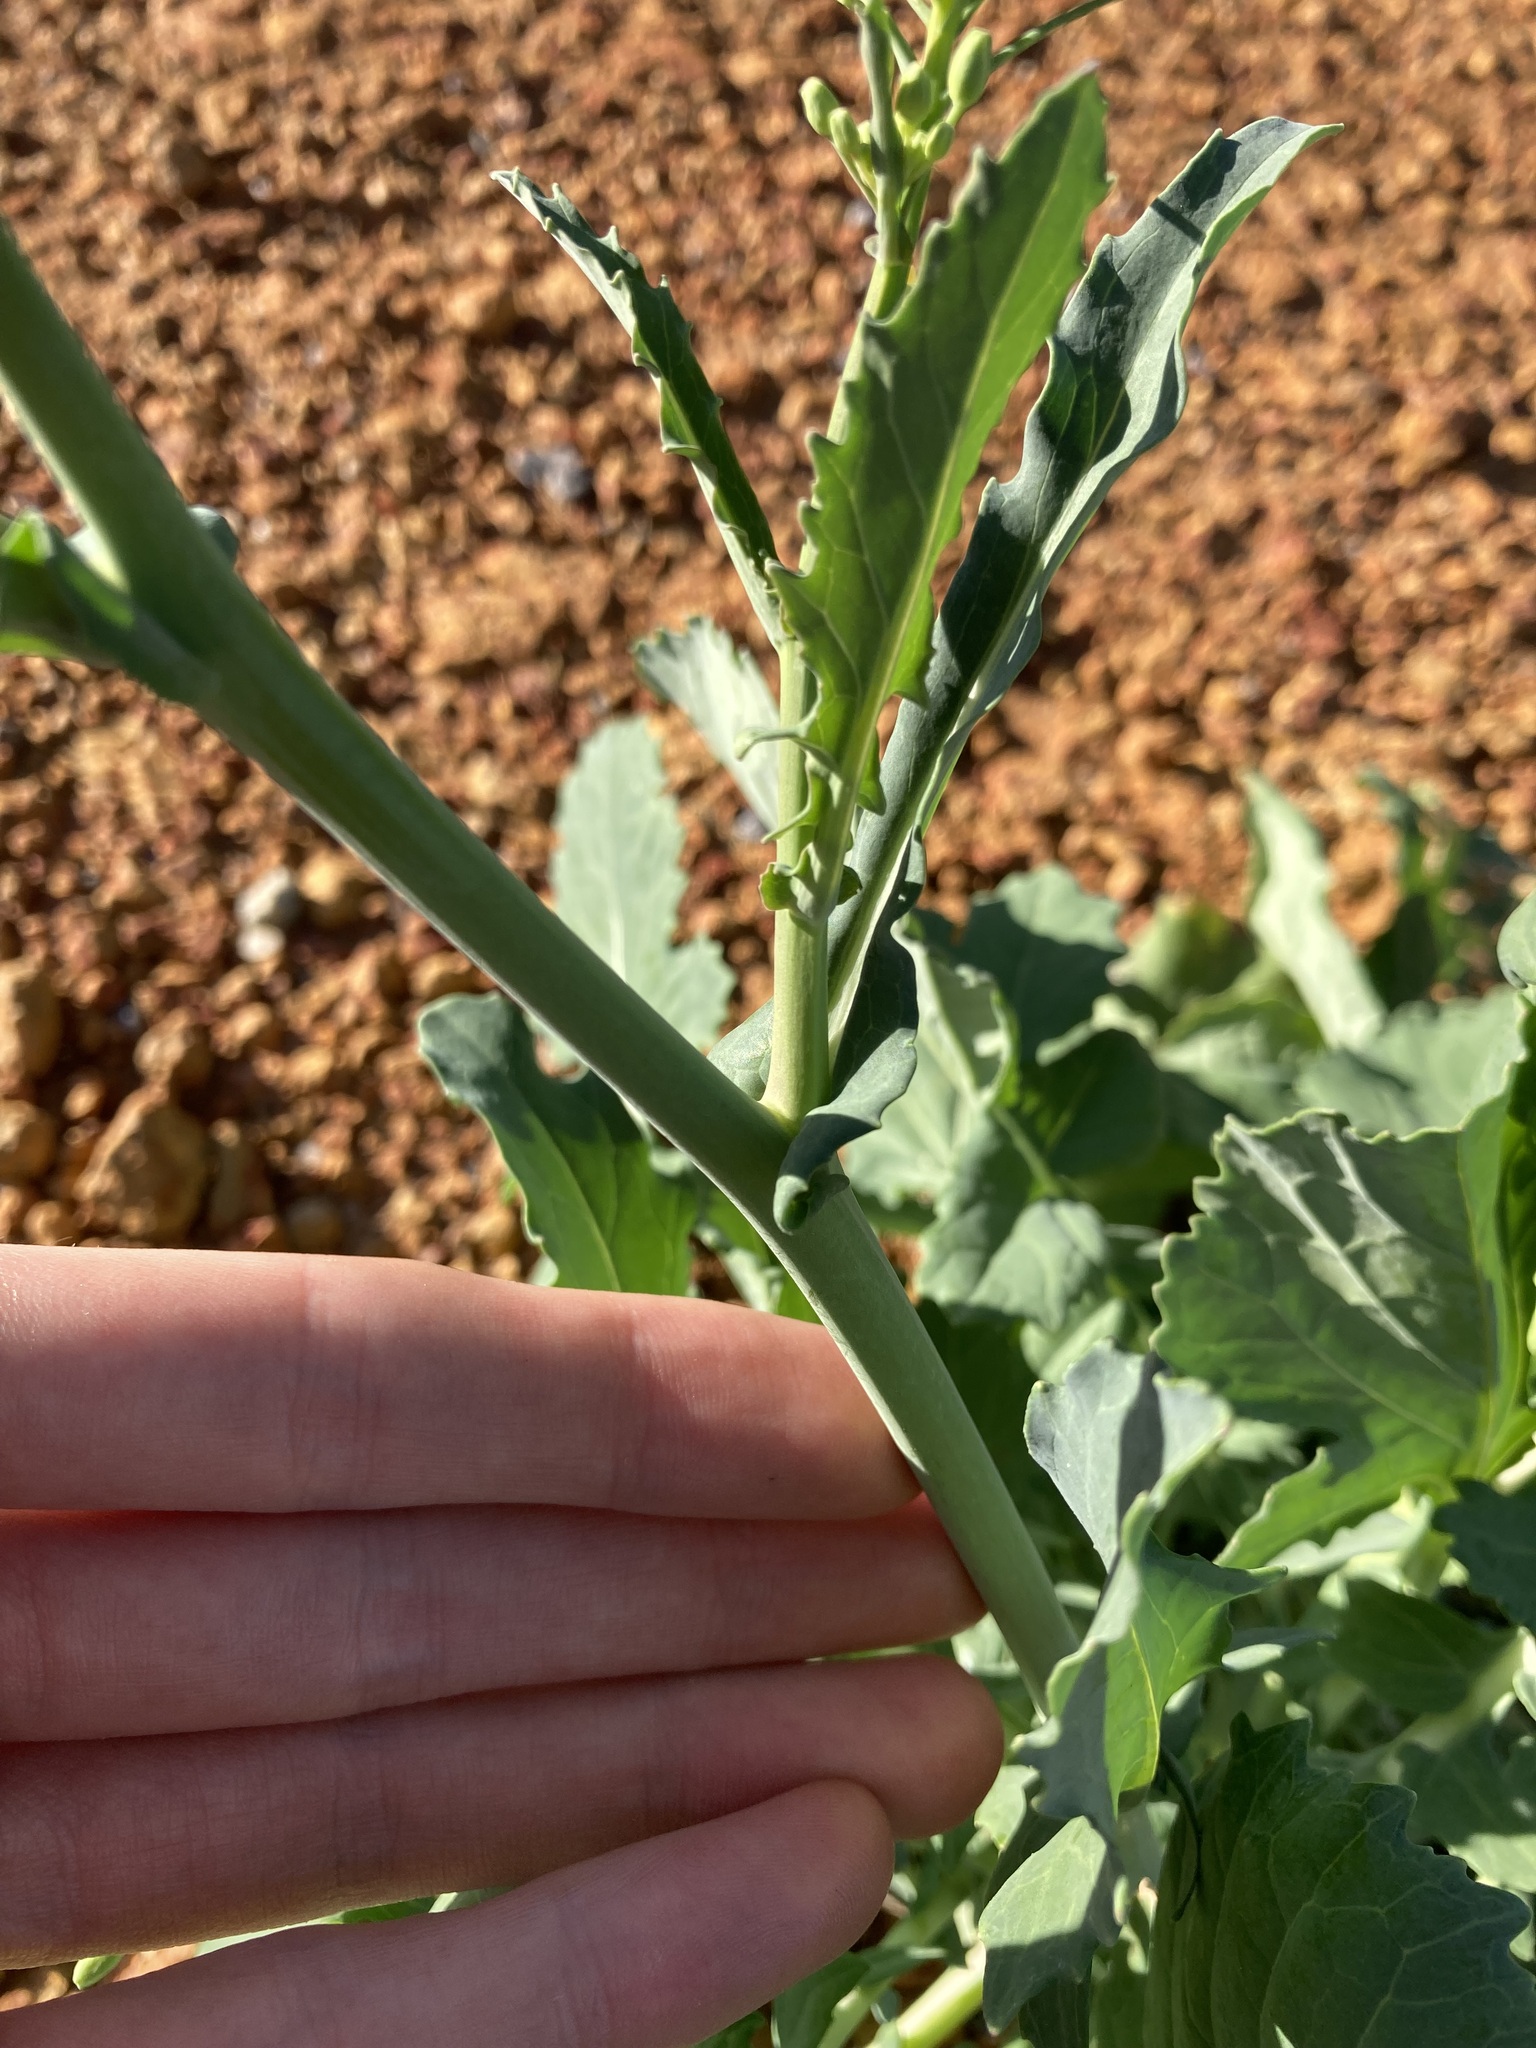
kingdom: Plantae
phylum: Tracheophyta
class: Magnoliopsida
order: Brassicales
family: Brassicaceae
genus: Brassica
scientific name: Brassica napus
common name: Rape
